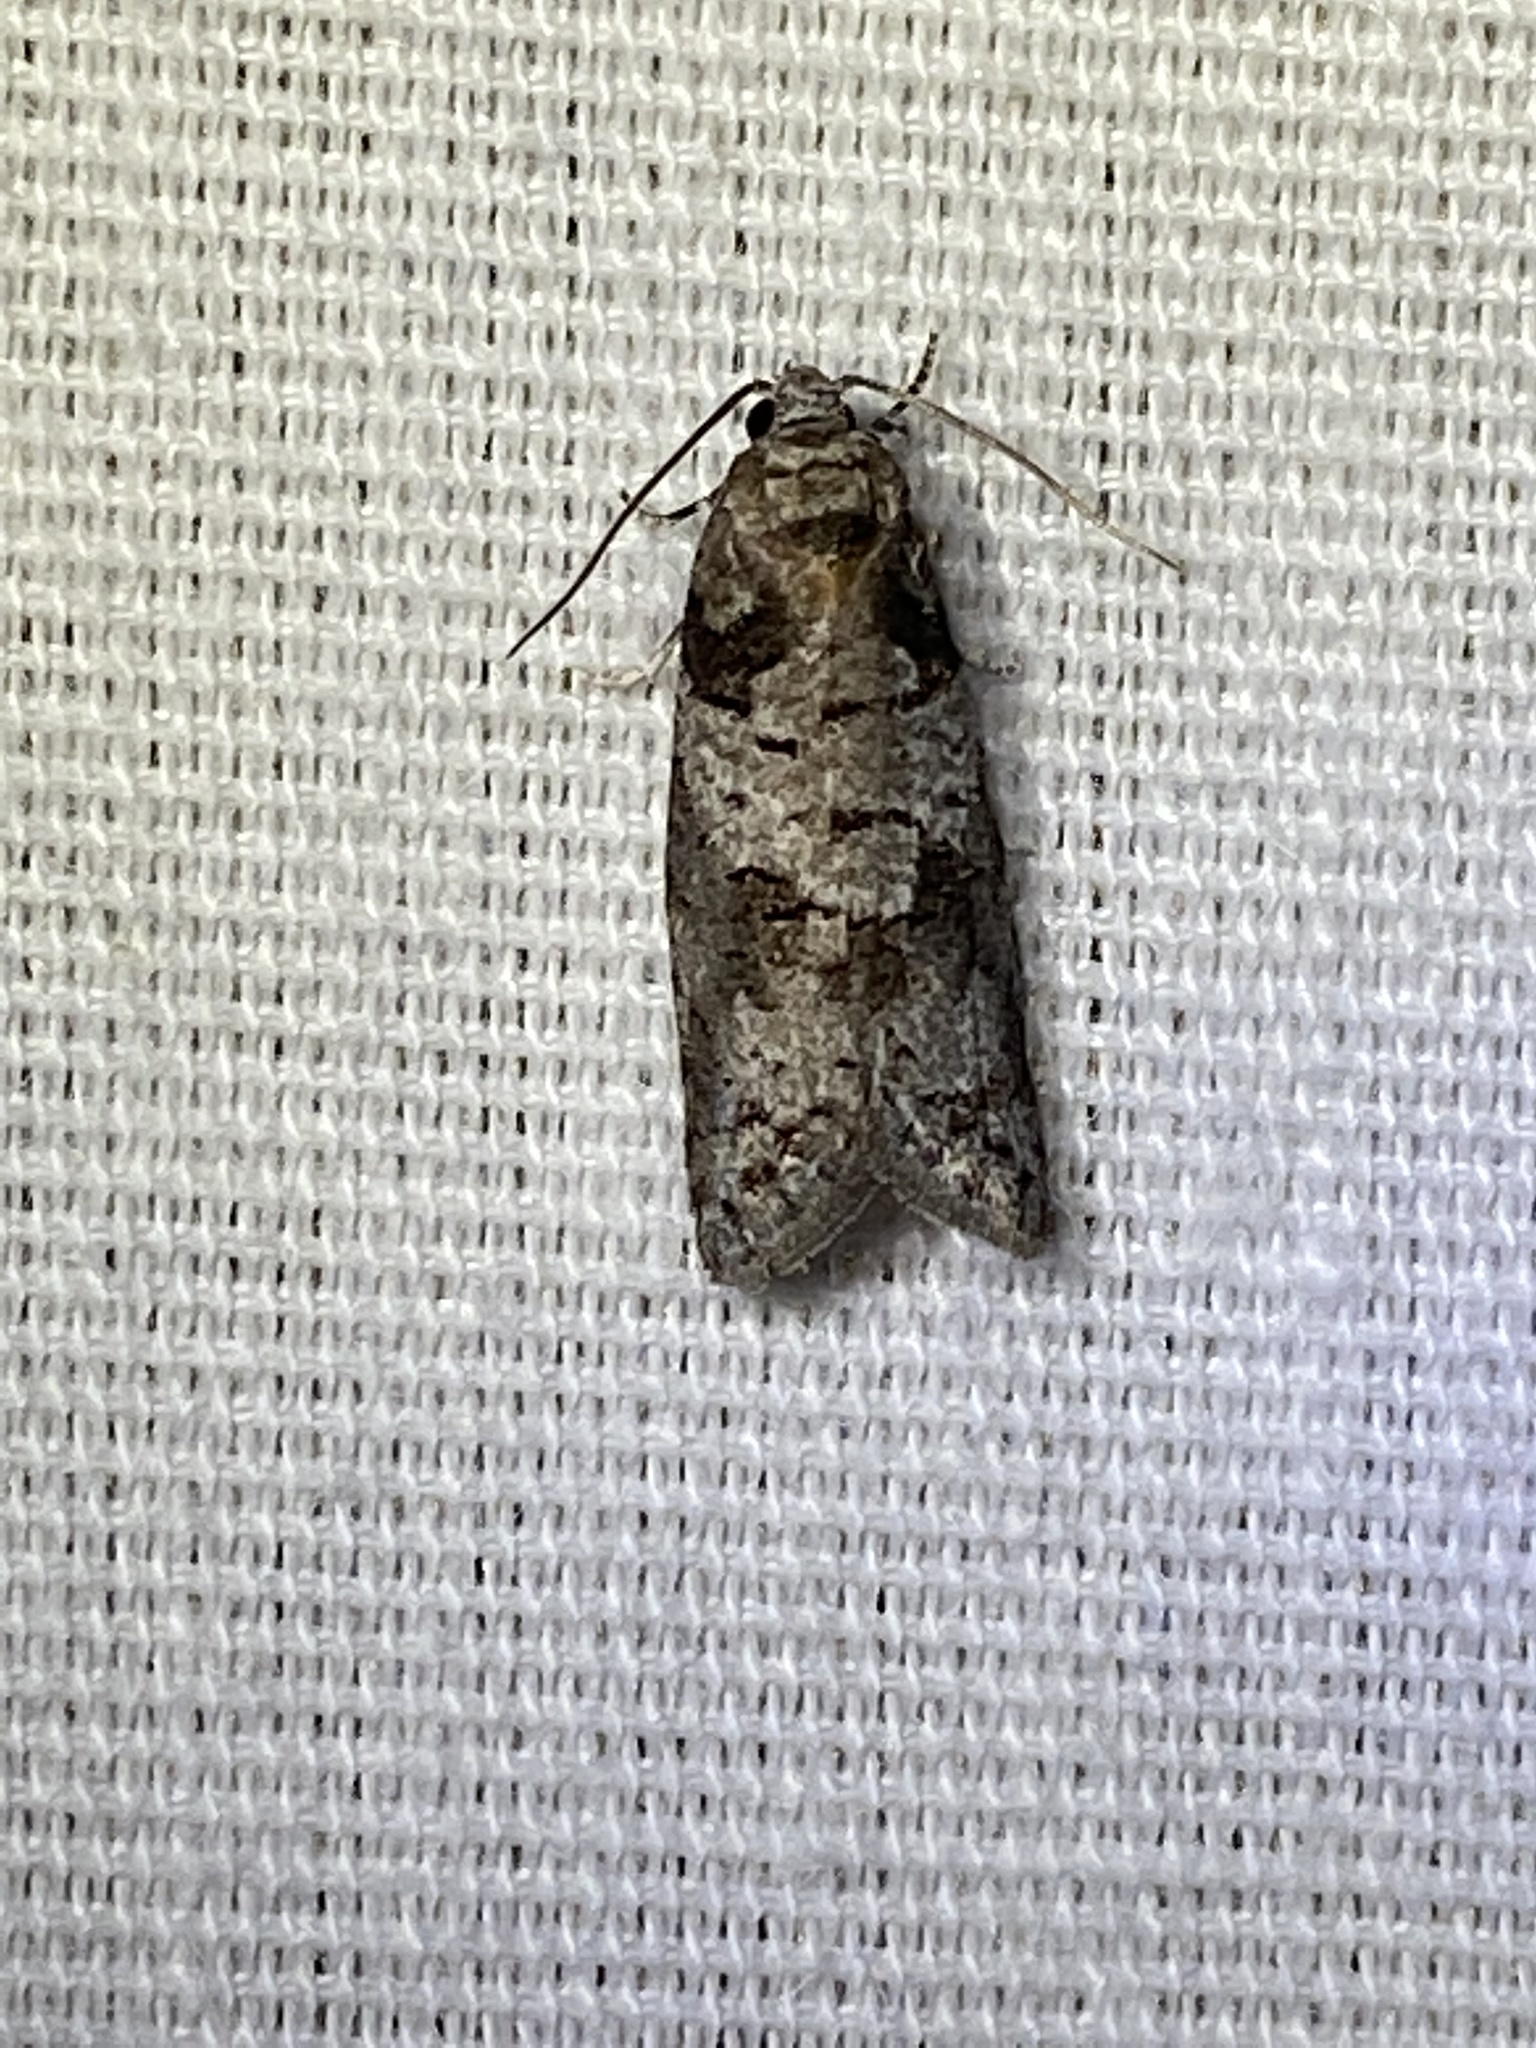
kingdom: Animalia
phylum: Arthropoda
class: Insecta
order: Lepidoptera
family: Tortricidae
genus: Decodes
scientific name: Decodes basiplagana
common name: Gray-marked tortricid
